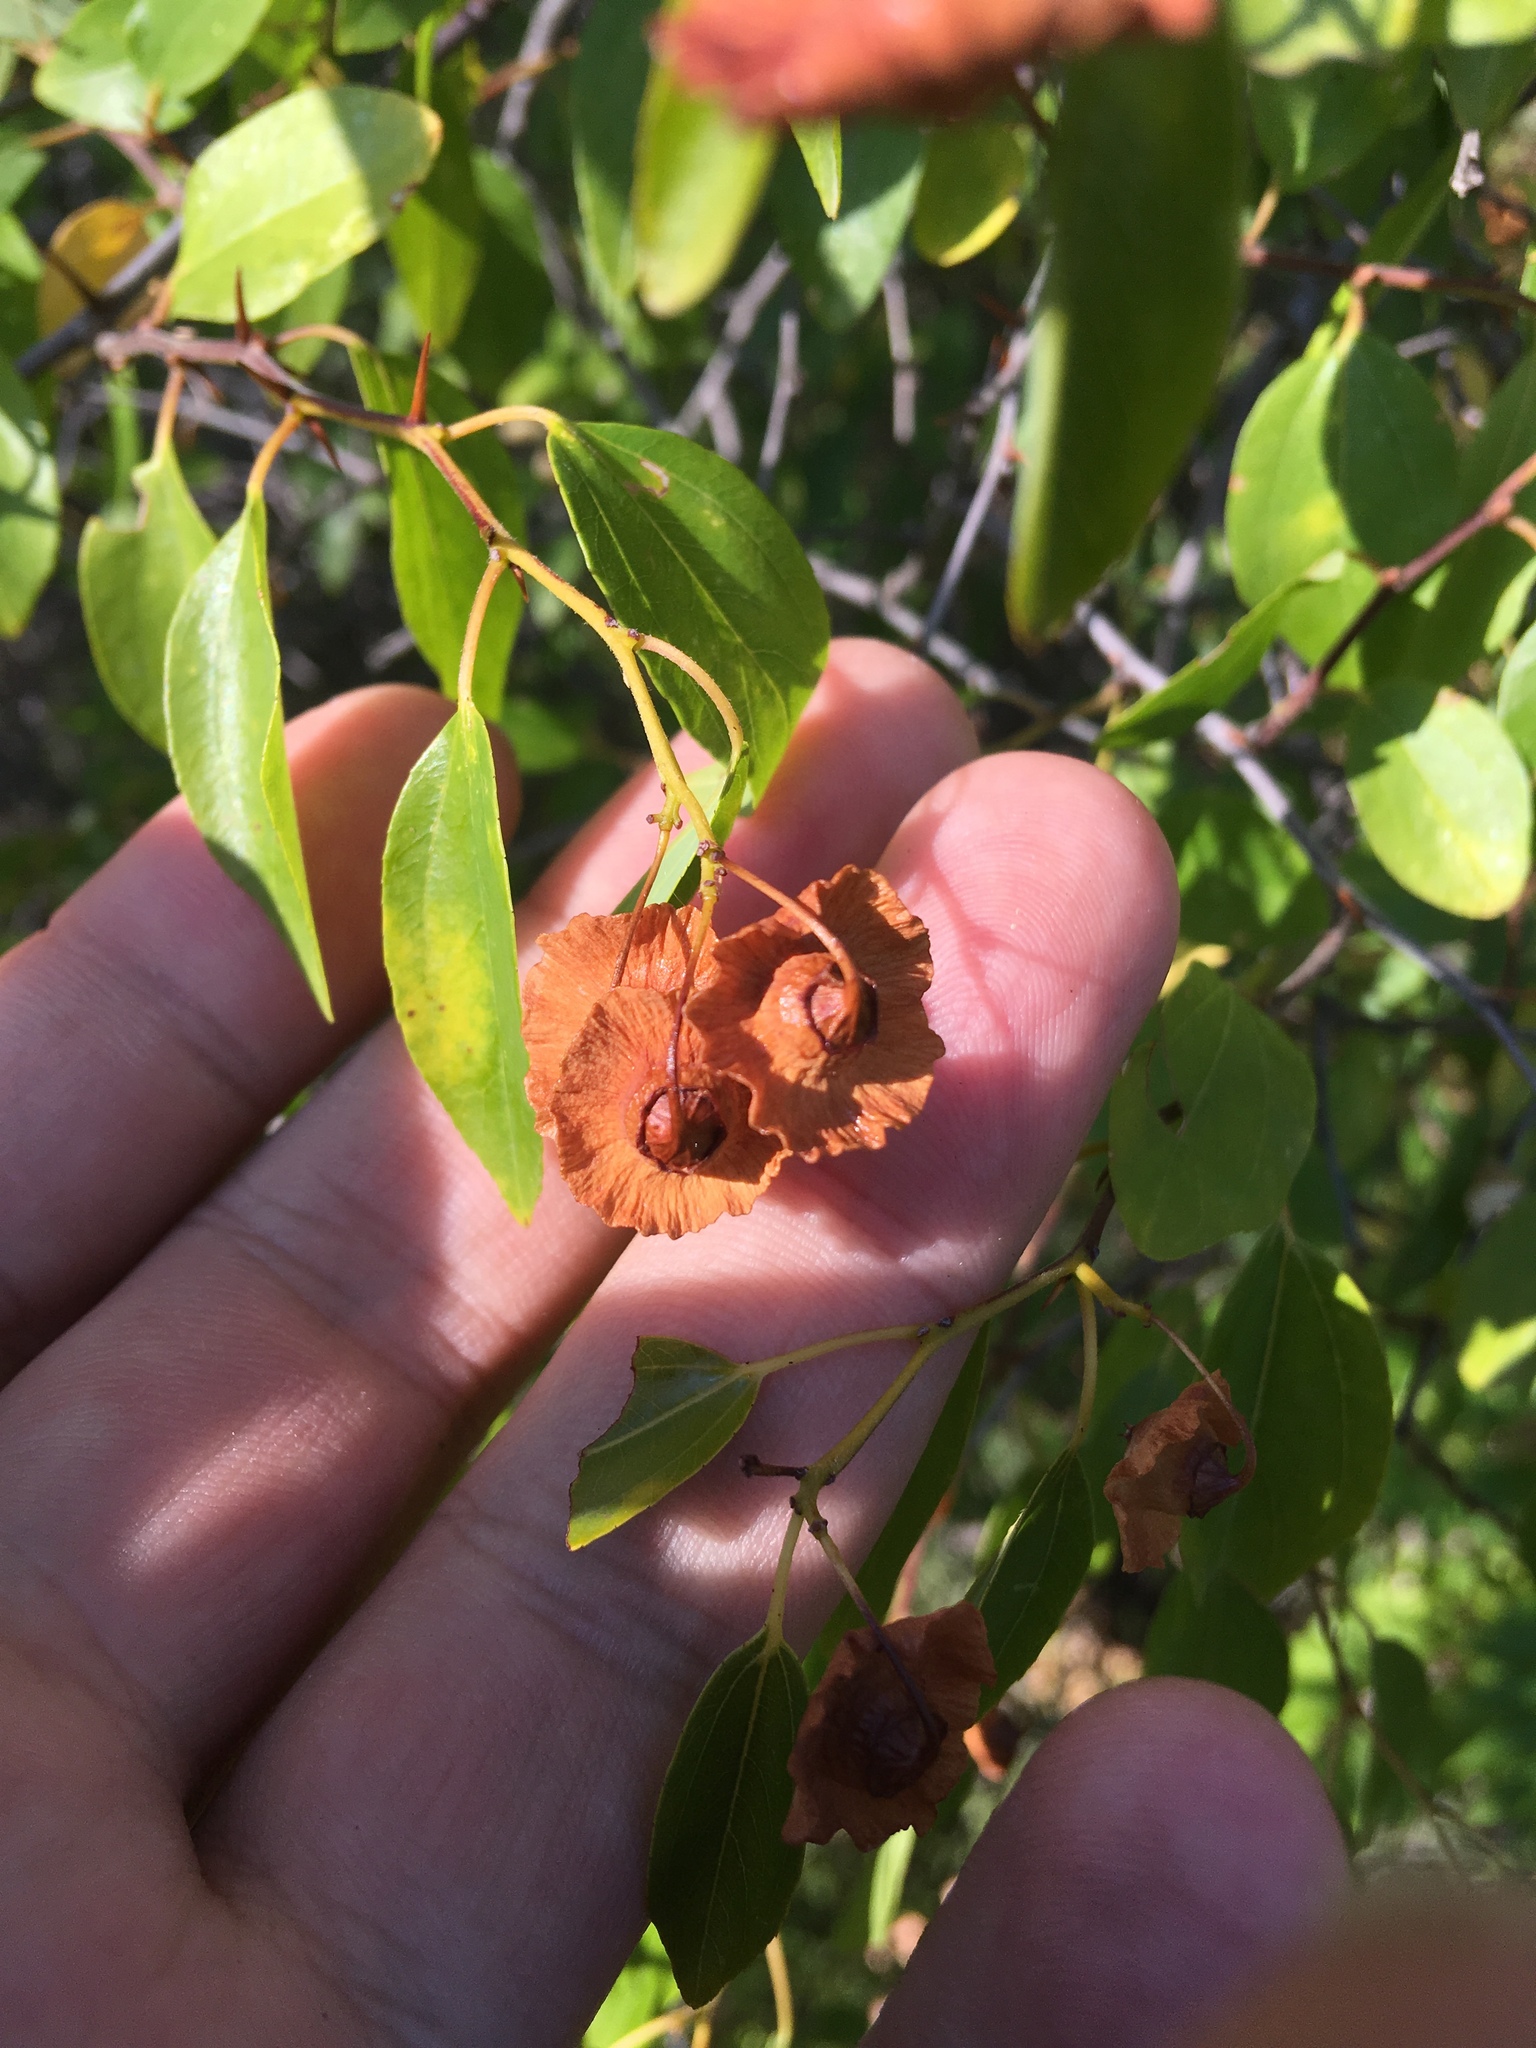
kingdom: Plantae
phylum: Tracheophyta
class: Magnoliopsida
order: Rosales
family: Rhamnaceae
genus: Paliurus
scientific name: Paliurus spina-christi
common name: Jeruselem thorn
